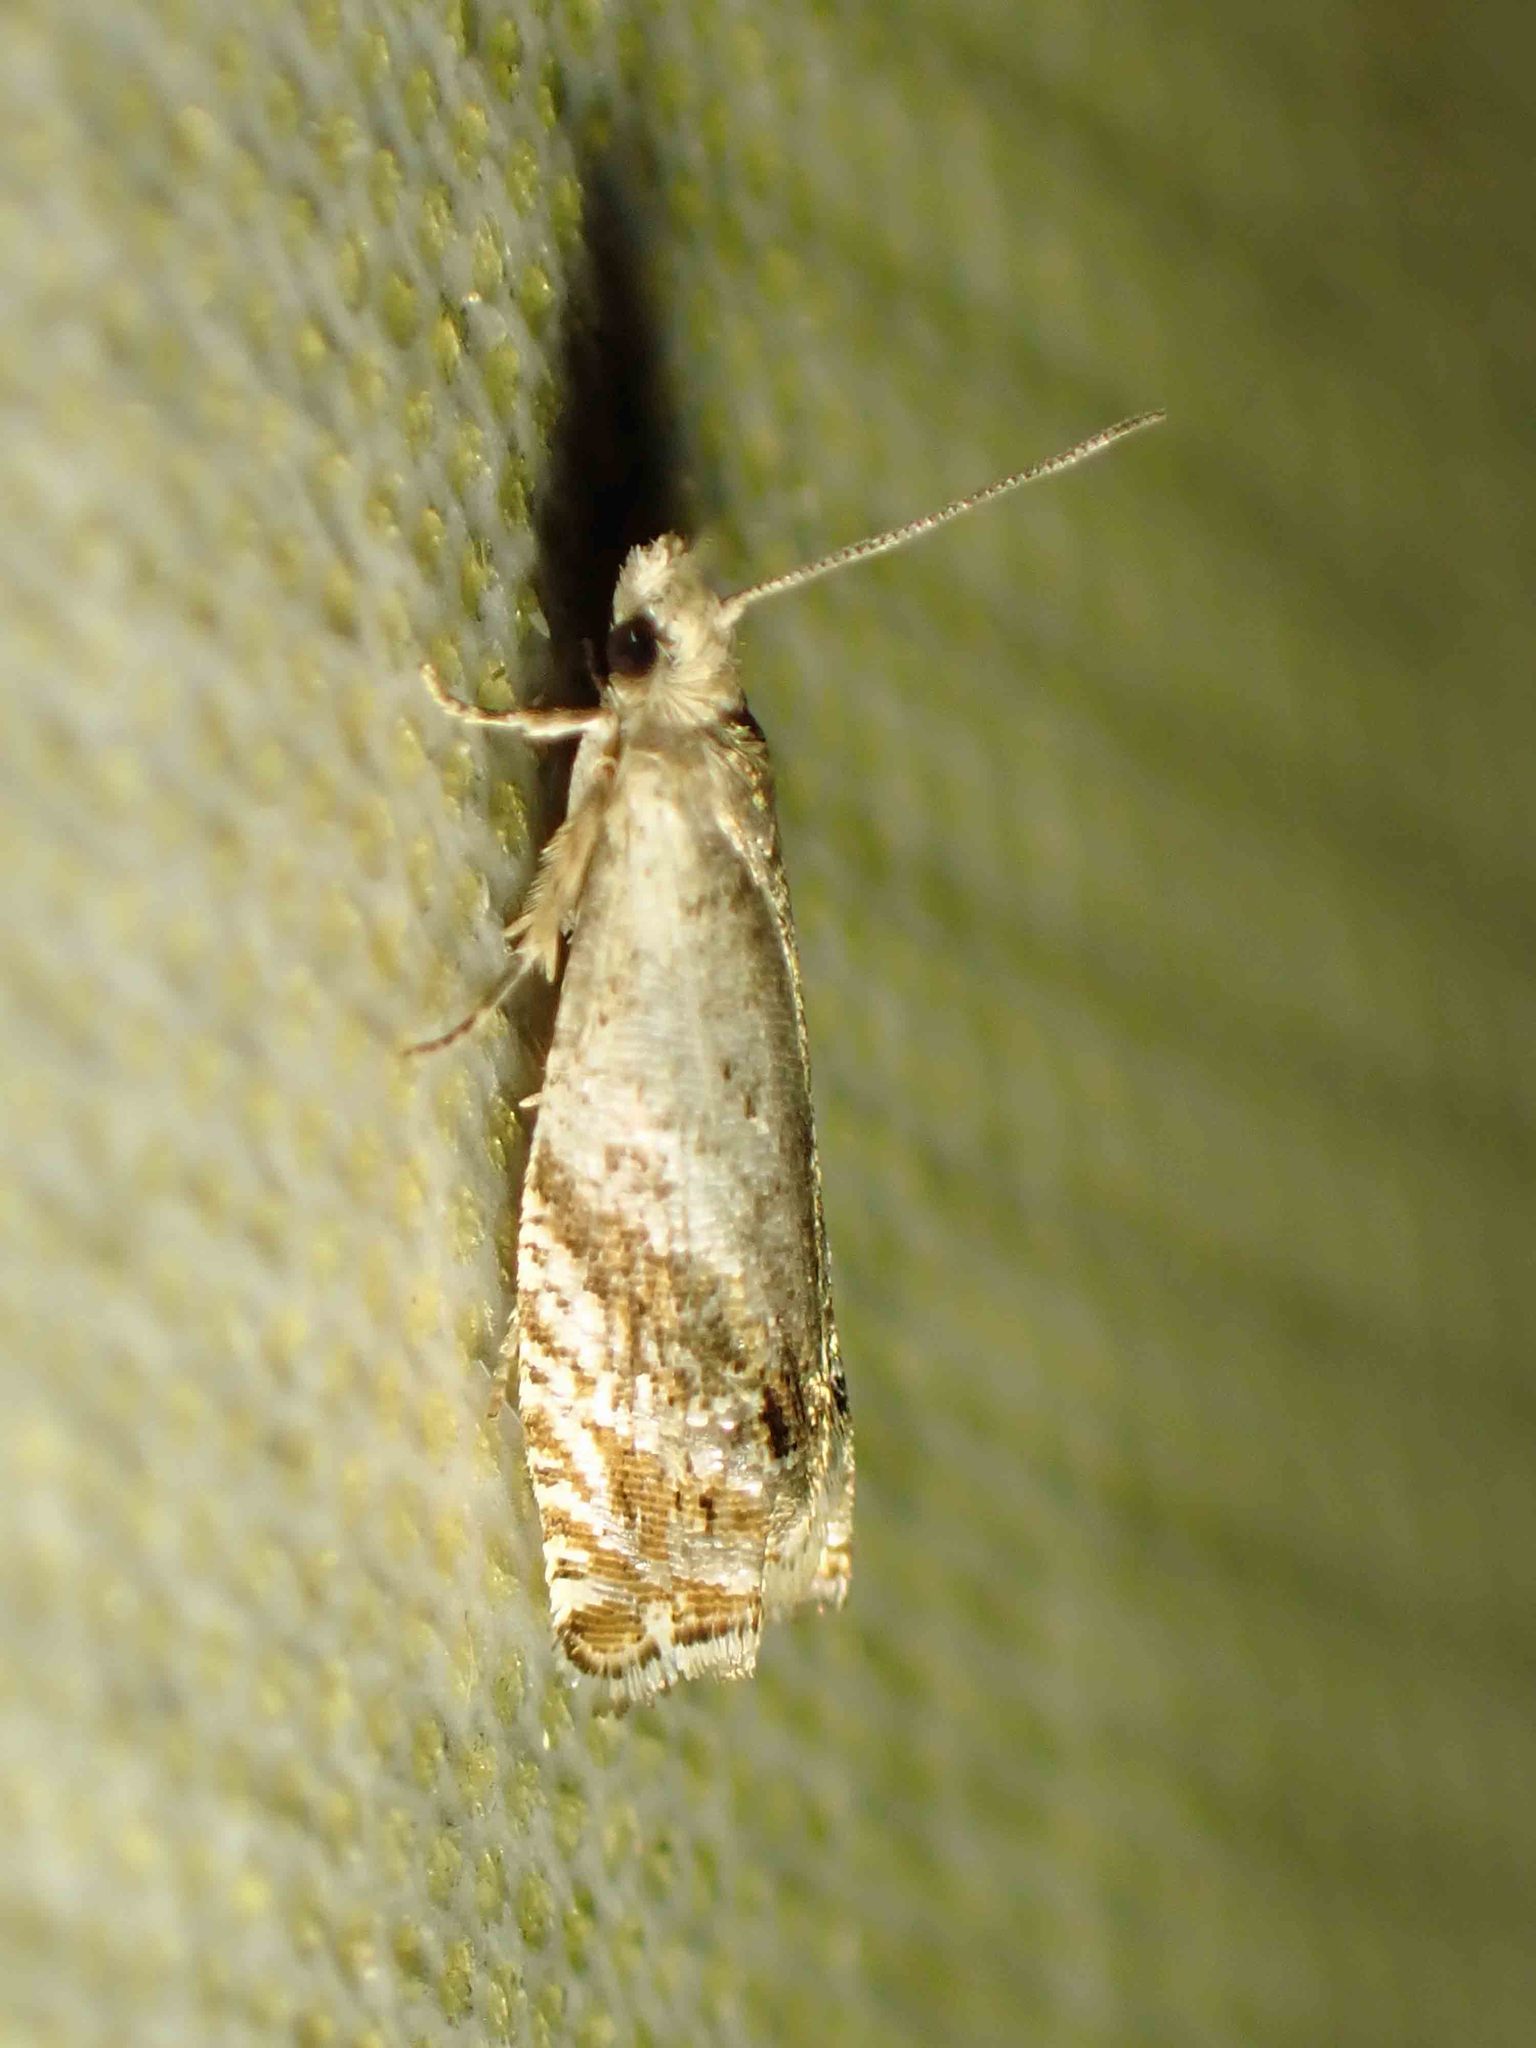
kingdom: Animalia
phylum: Arthropoda
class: Insecta
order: Lepidoptera
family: Tortricidae
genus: Epinotia
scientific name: Epinotia solicitana
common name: Birch shoot borer moth
